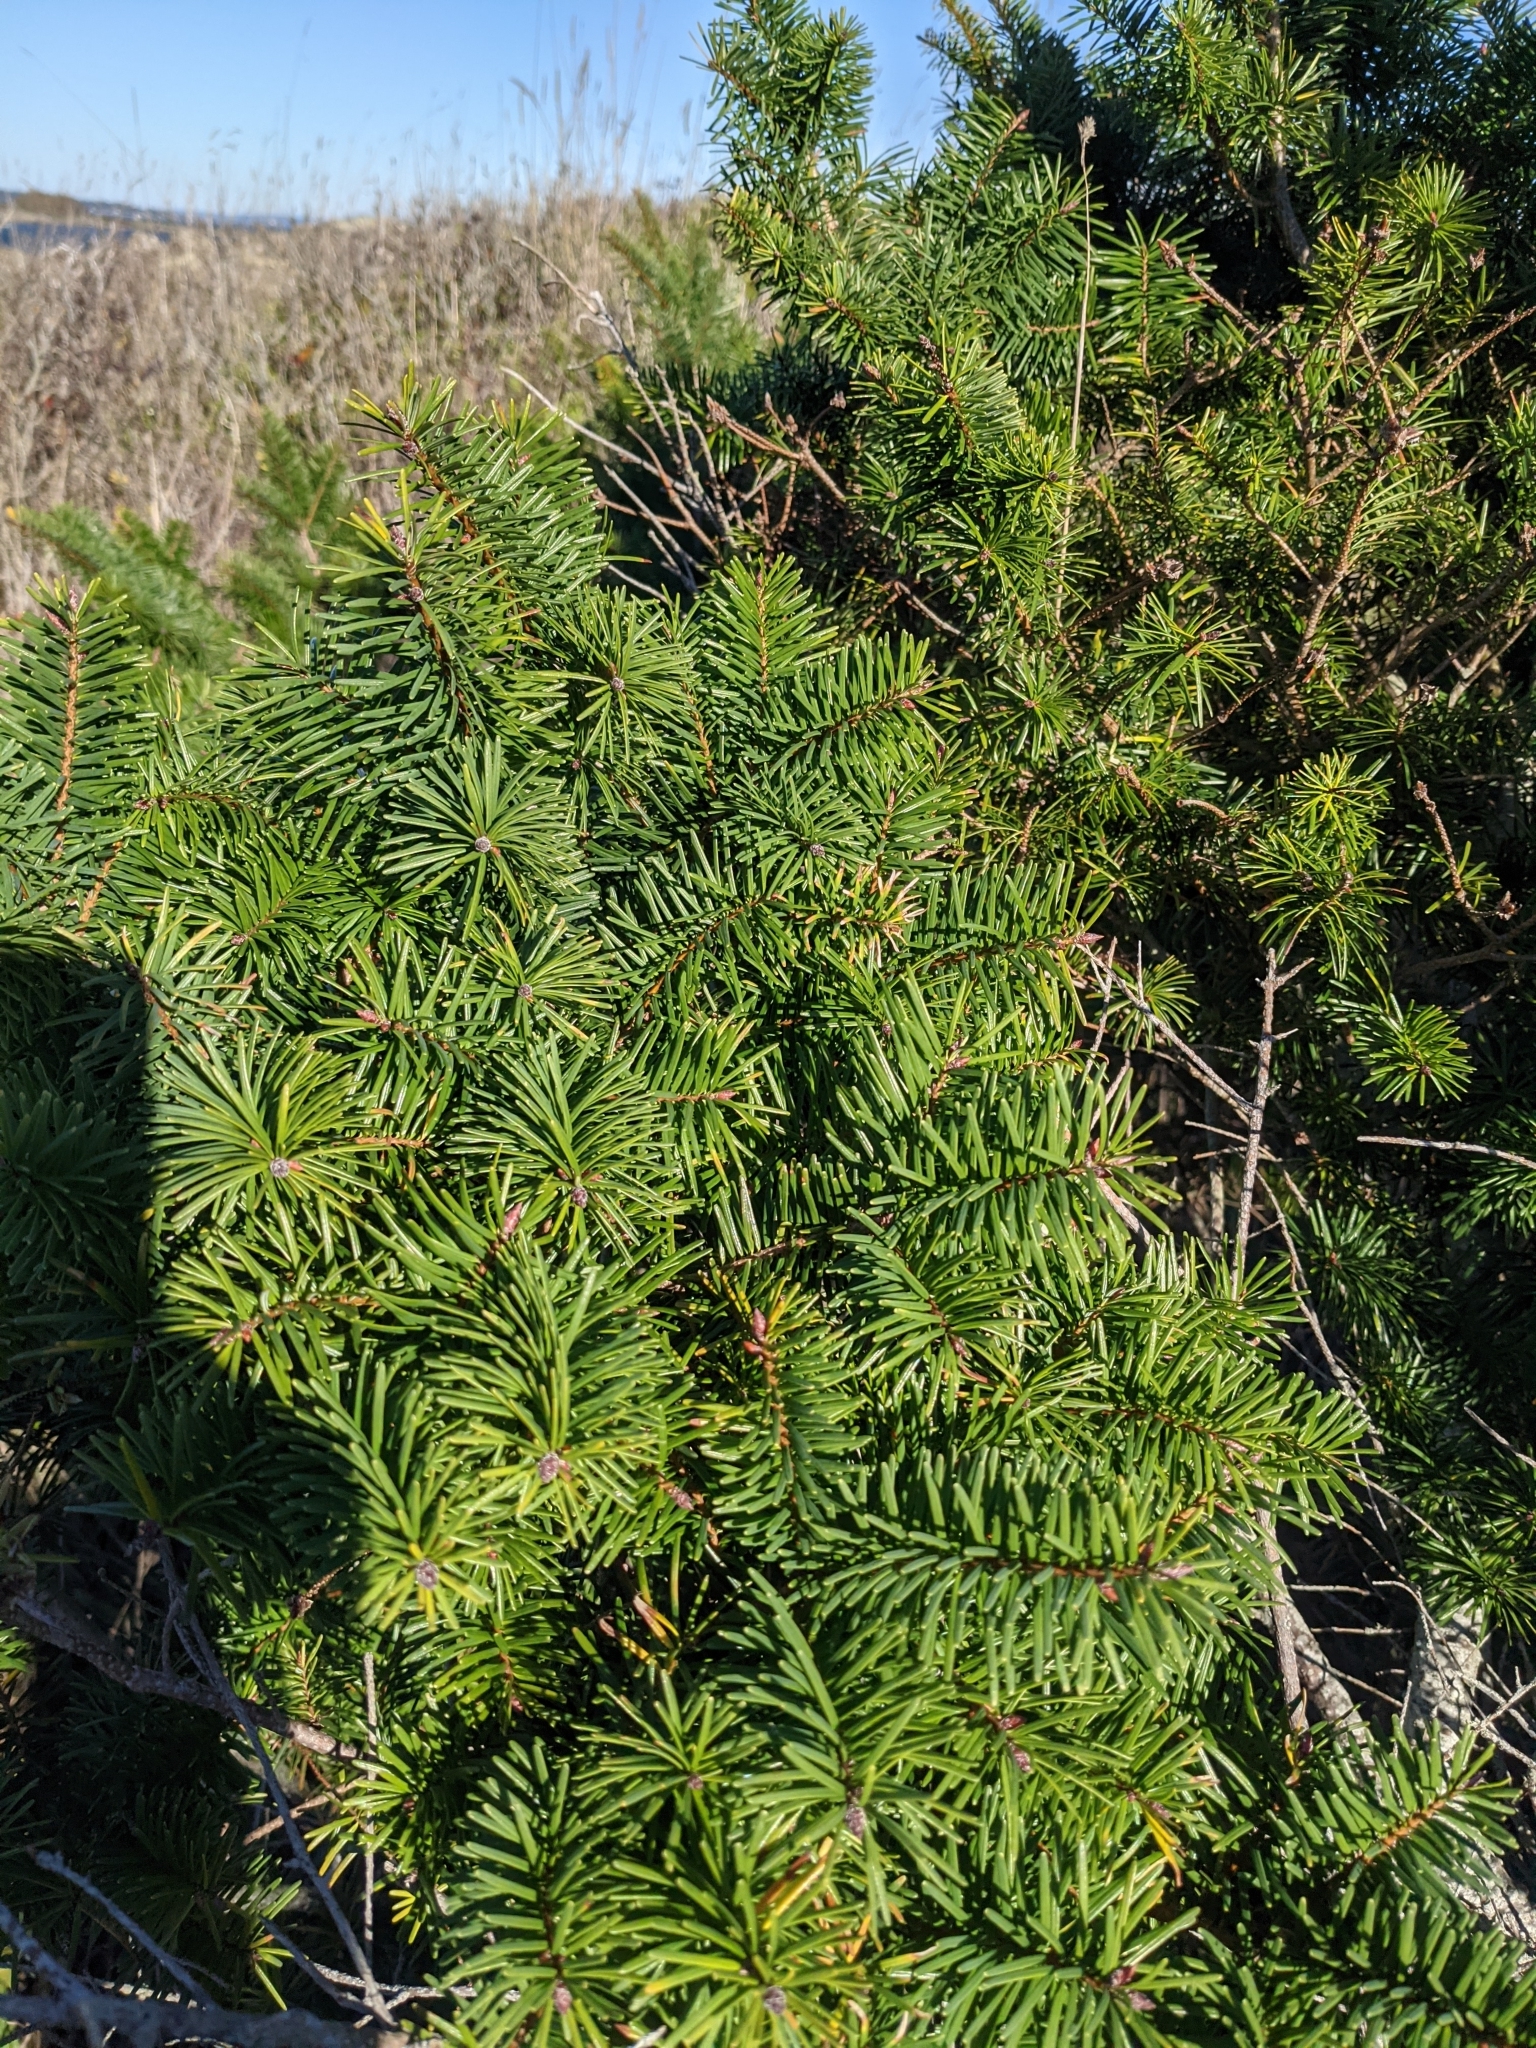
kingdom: Plantae
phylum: Tracheophyta
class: Pinopsida
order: Pinales
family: Pinaceae
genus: Pseudotsuga
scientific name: Pseudotsuga menziesii
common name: Douglas fir
